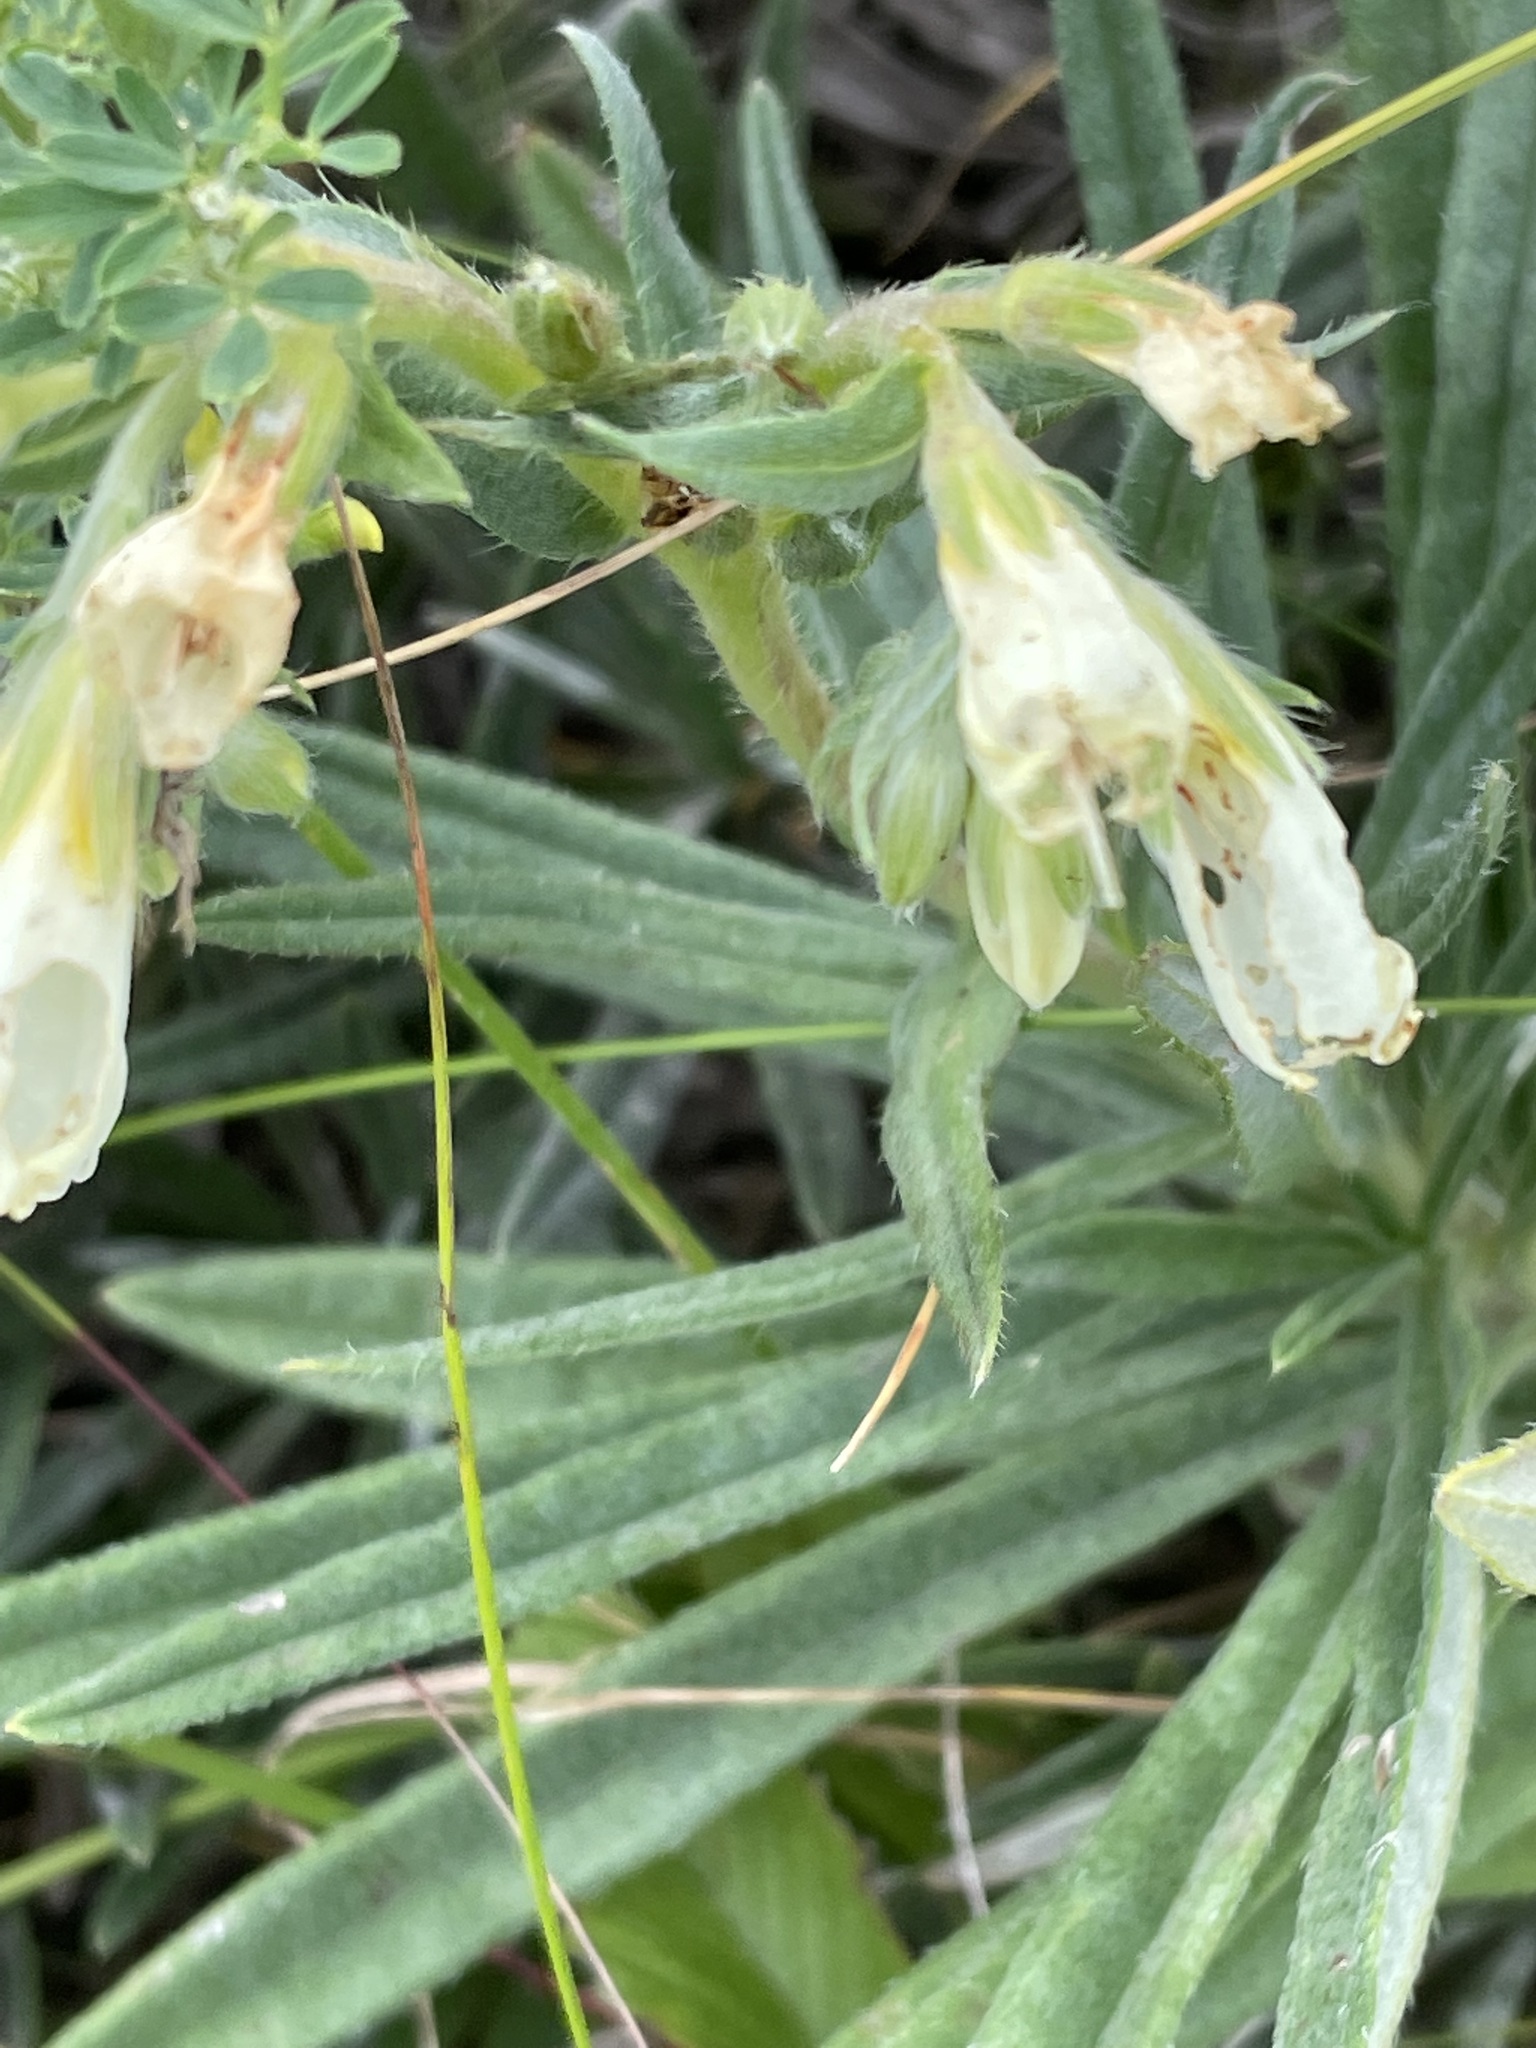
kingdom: Plantae
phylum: Tracheophyta
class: Magnoliopsida
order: Boraginales
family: Boraginaceae
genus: Onosma
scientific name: Onosma simplicissima
